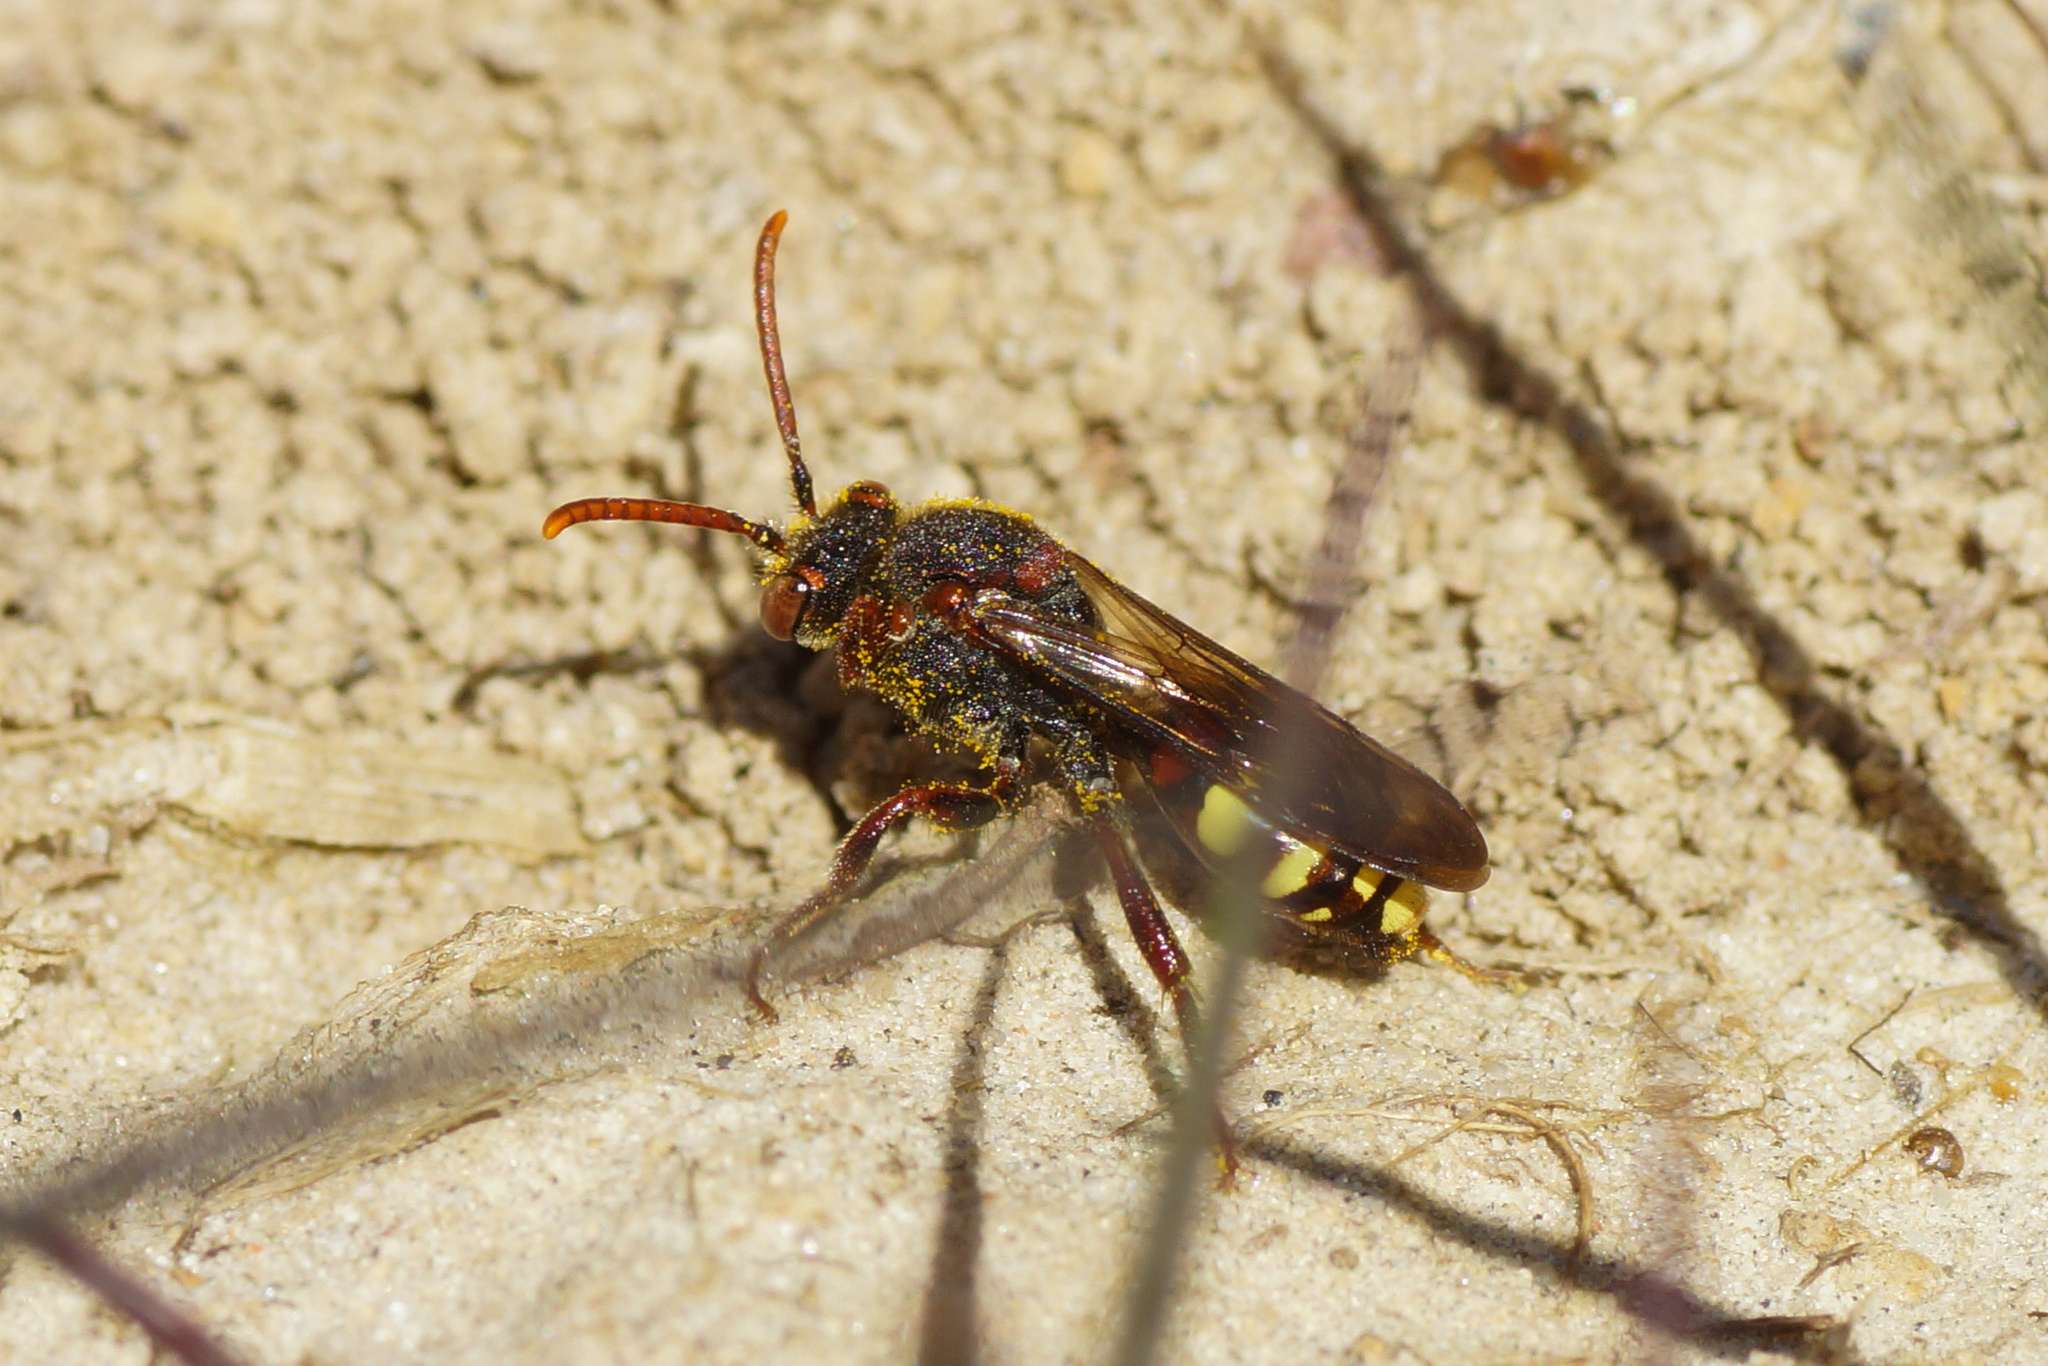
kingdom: Animalia
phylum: Arthropoda
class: Insecta
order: Hymenoptera
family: Apidae
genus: Nomada
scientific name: Nomada leucophthalma
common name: Early nomad bee
